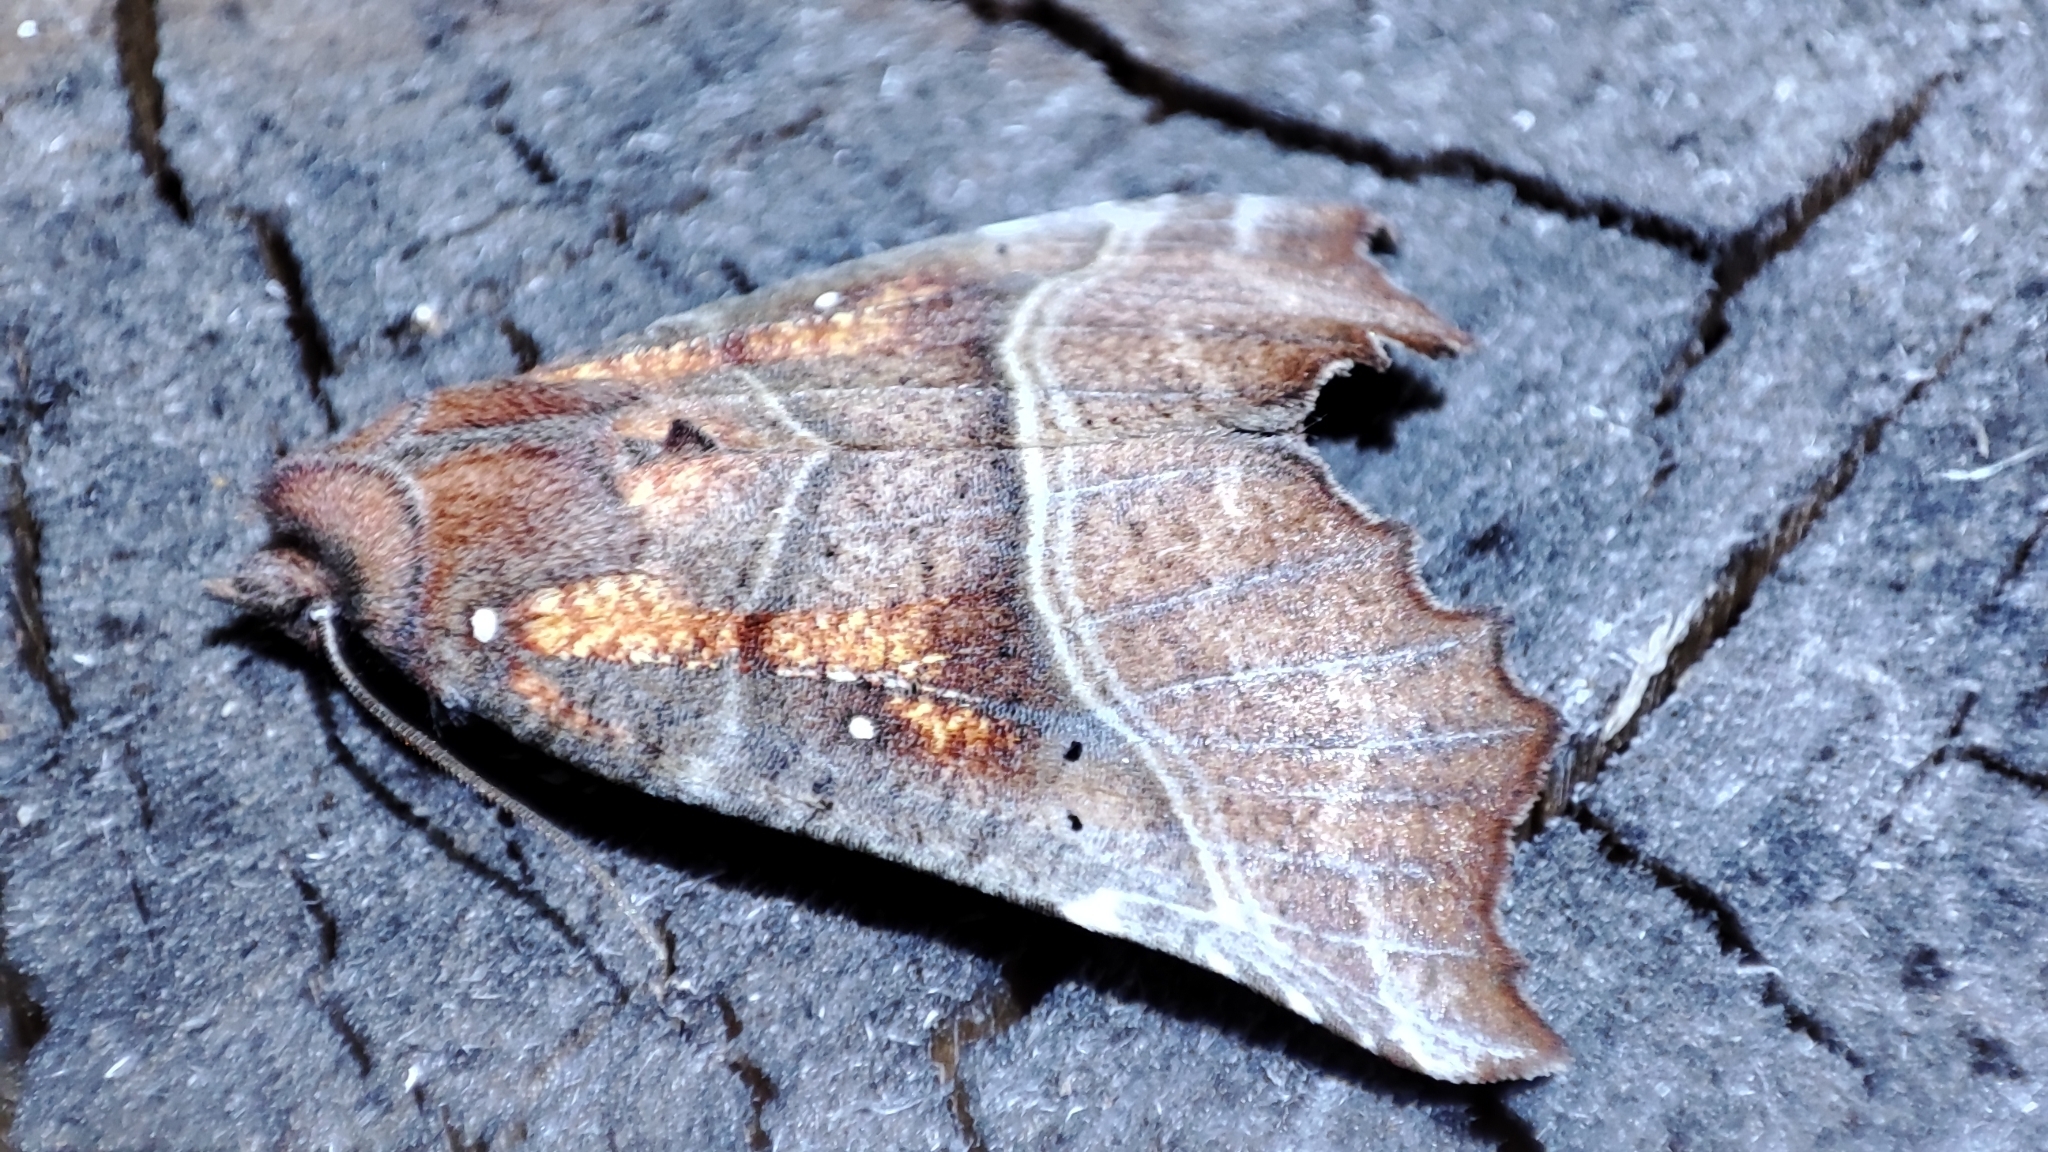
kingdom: Animalia
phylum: Arthropoda
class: Insecta
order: Lepidoptera
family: Erebidae
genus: Scoliopteryx
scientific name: Scoliopteryx libatrix
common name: Herald
